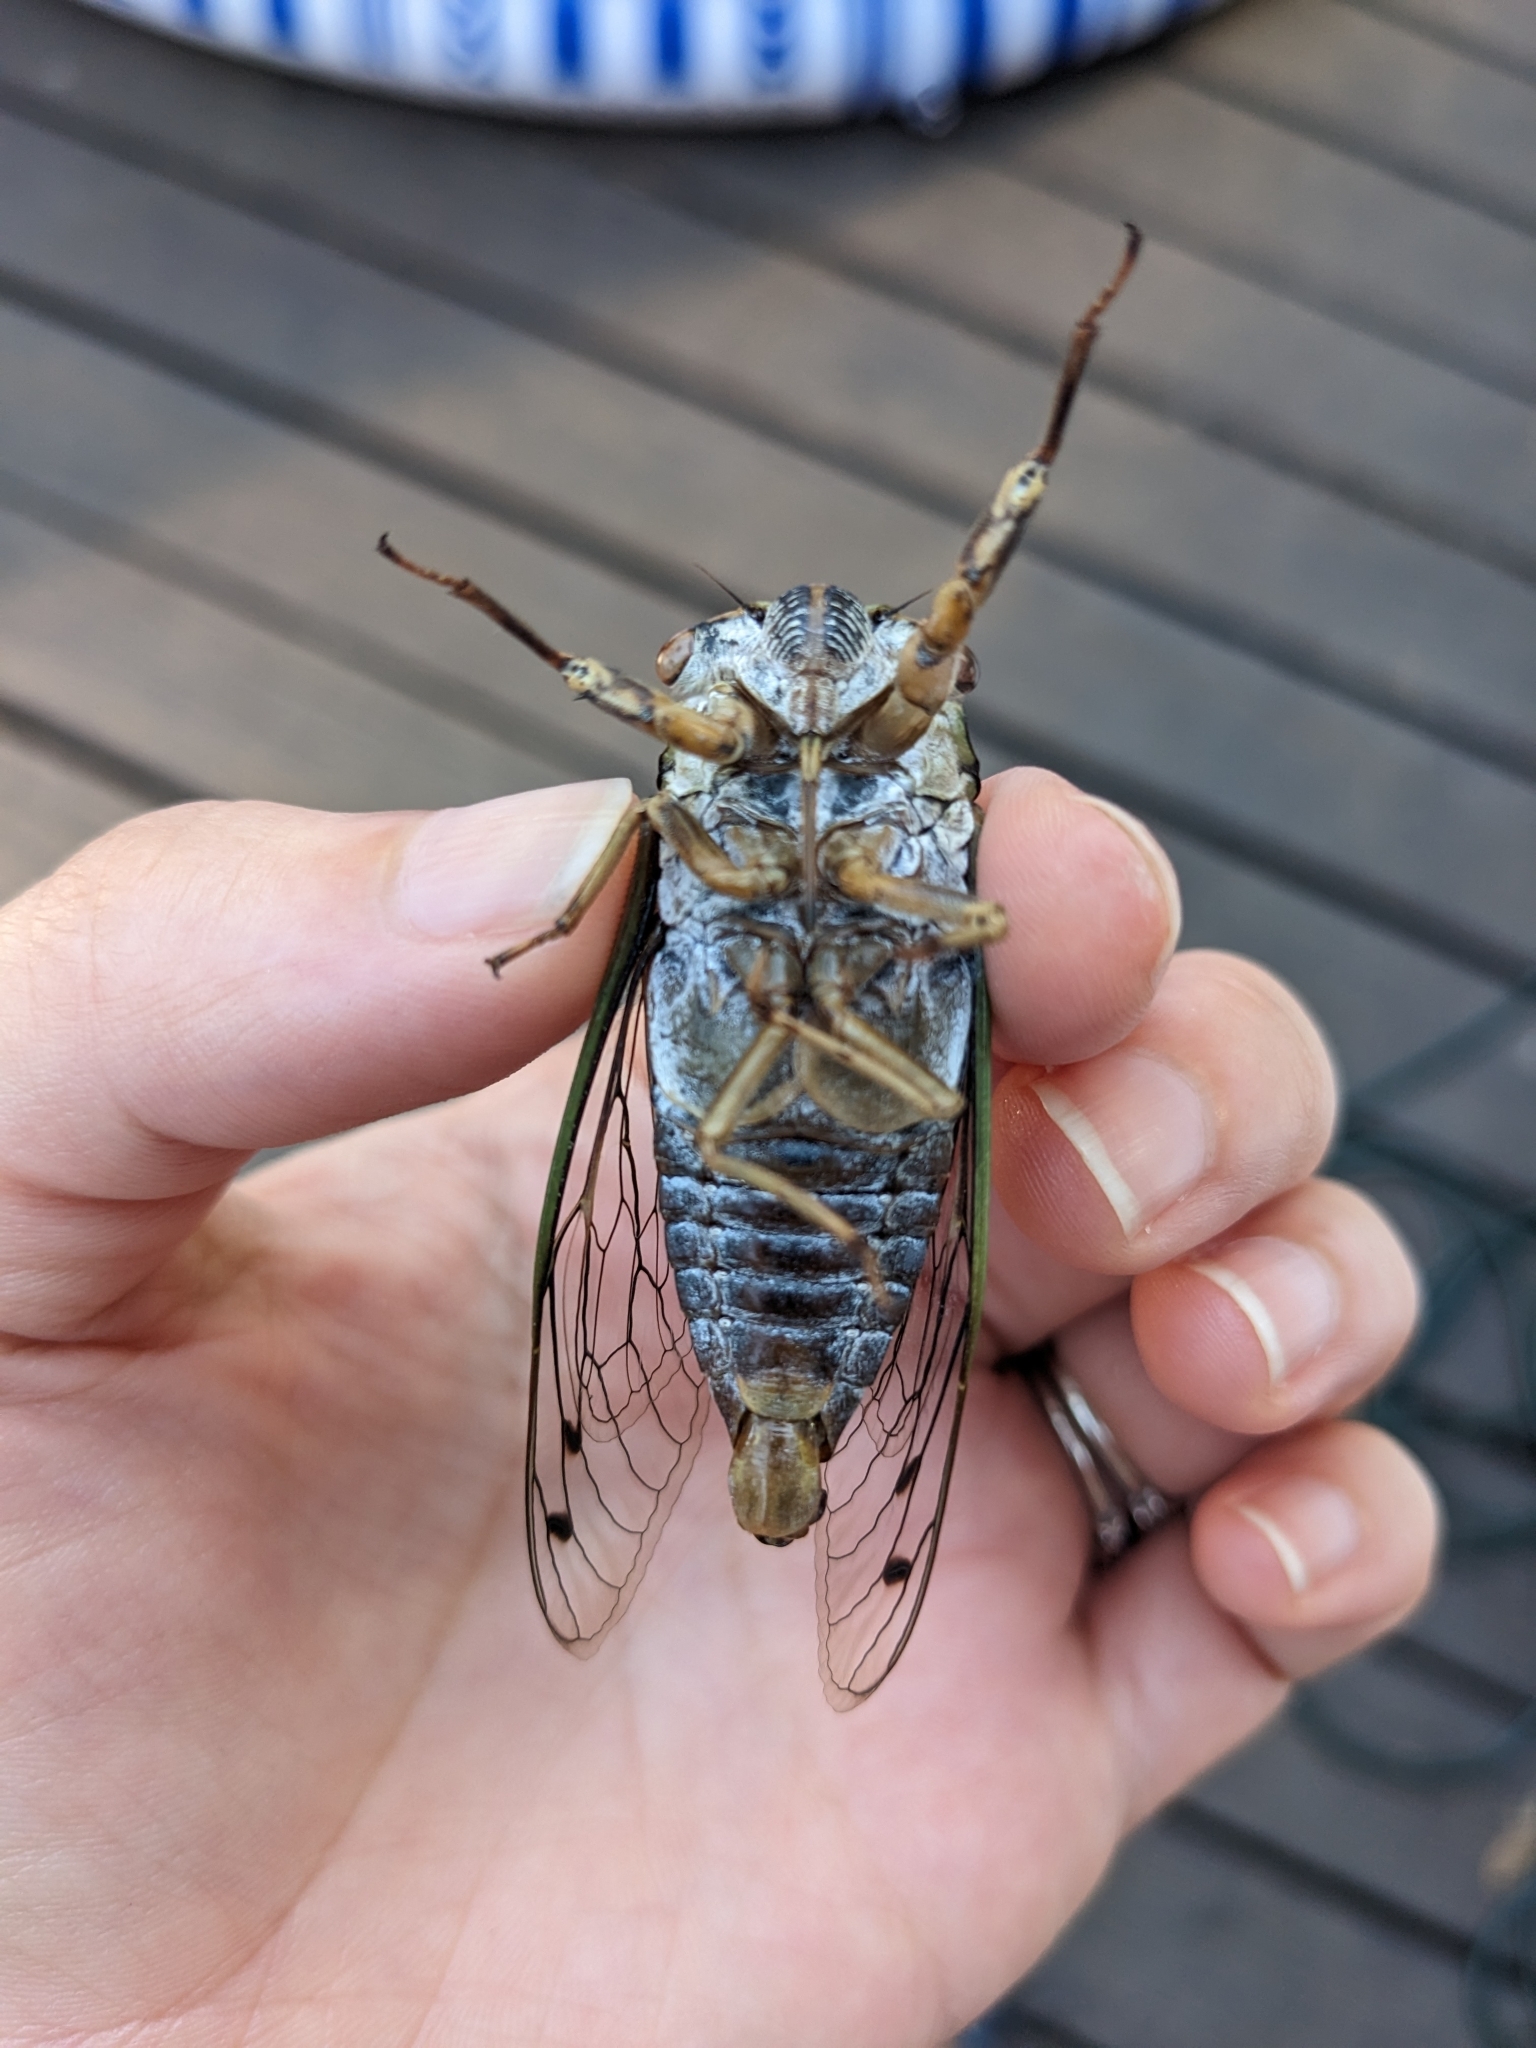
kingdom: Animalia
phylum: Arthropoda
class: Insecta
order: Hemiptera
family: Cicadidae
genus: Megatibicen
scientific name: Megatibicen resh
